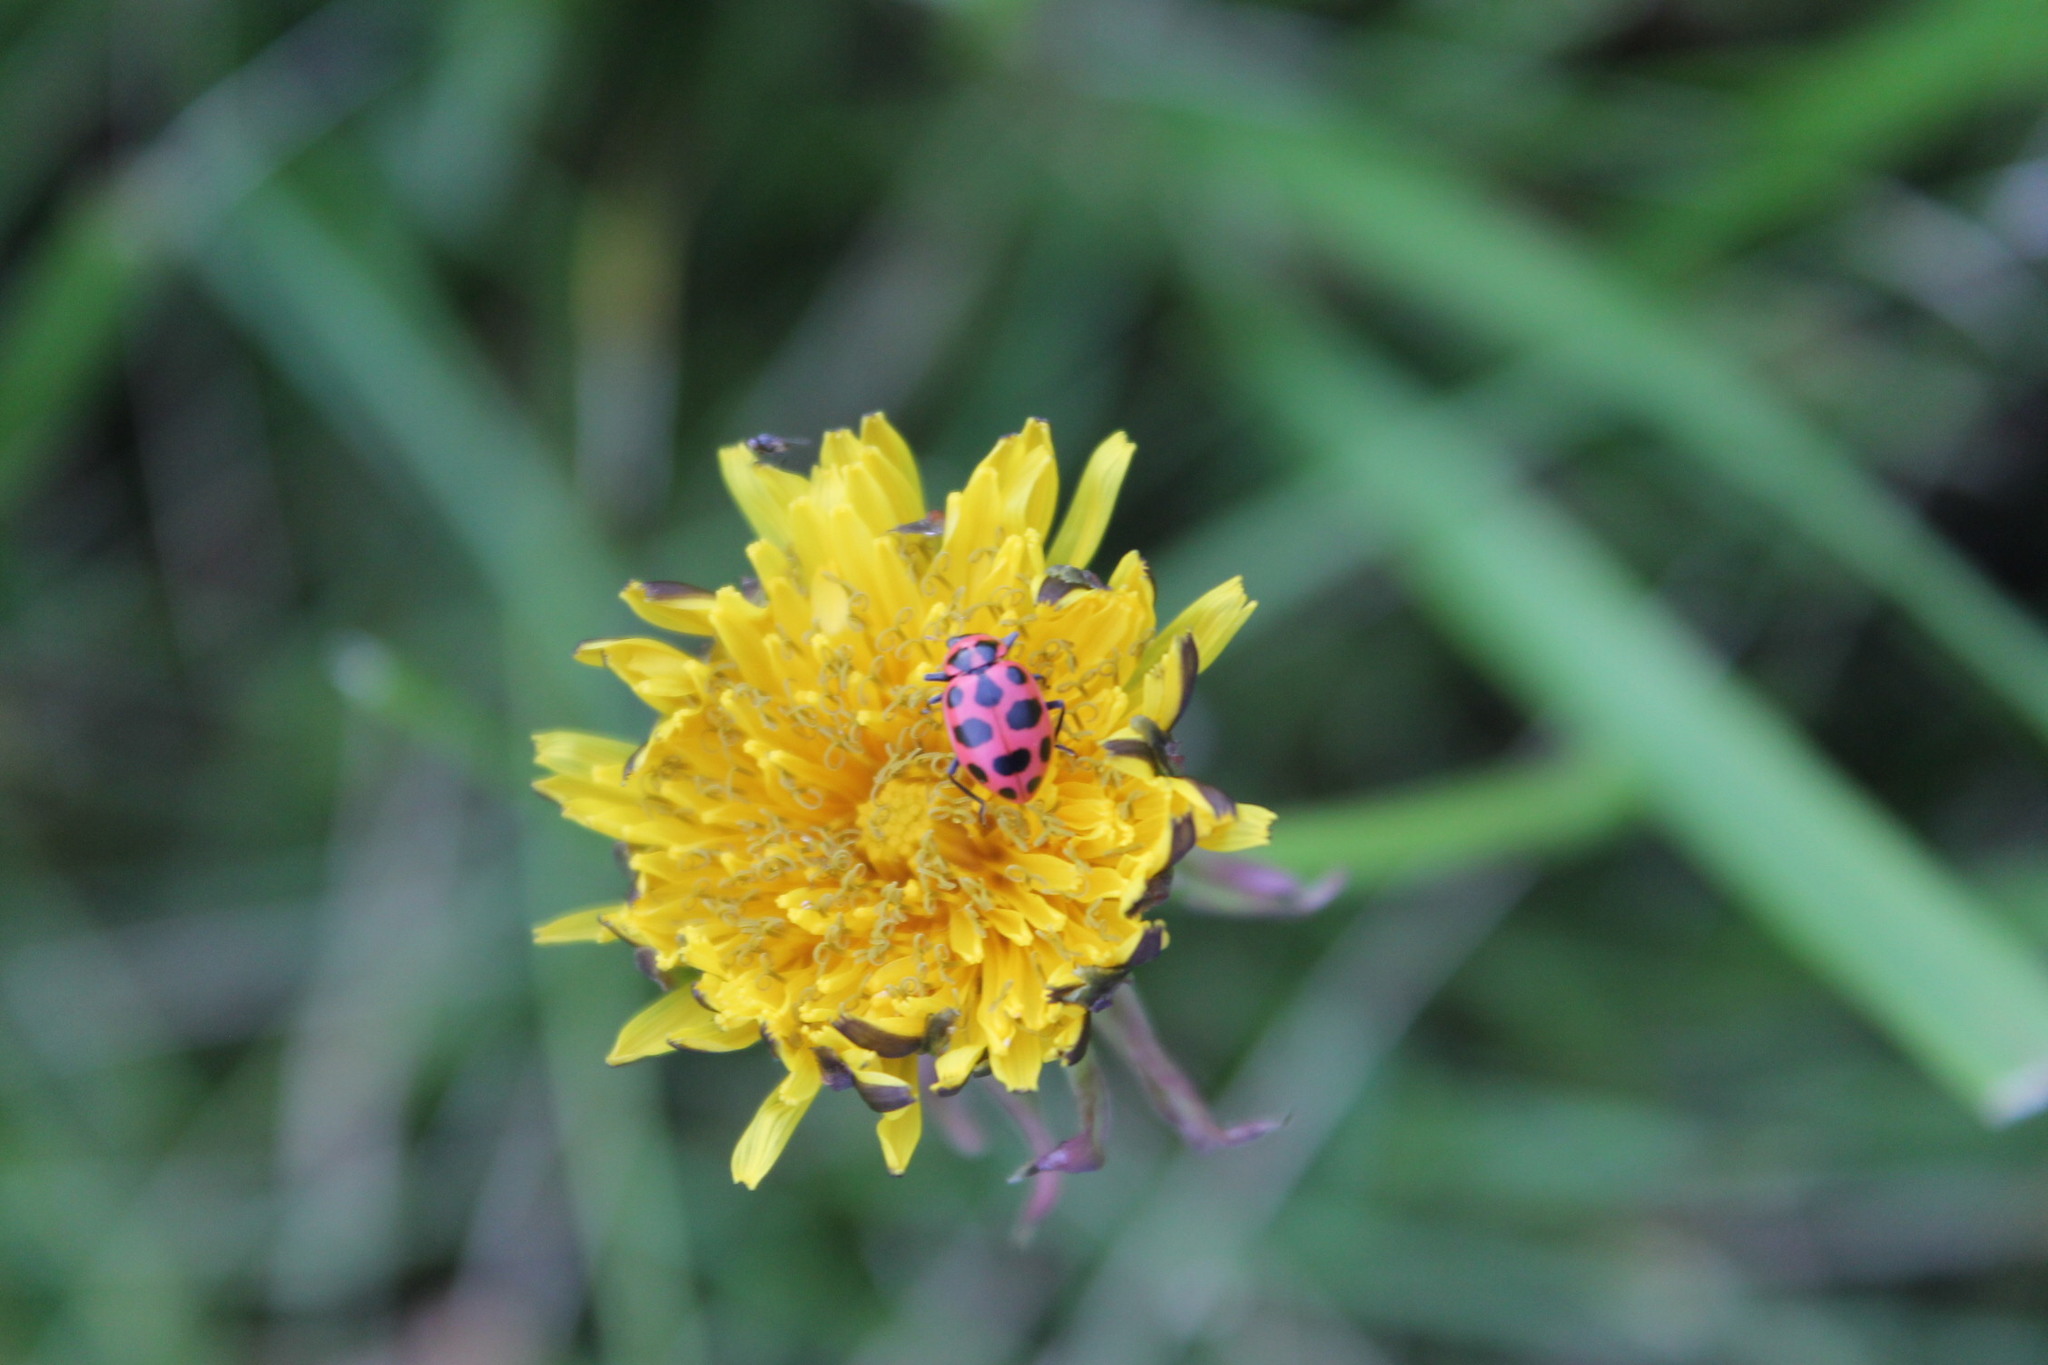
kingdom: Animalia
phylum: Arthropoda
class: Insecta
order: Coleoptera
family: Coccinellidae
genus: Coleomegilla
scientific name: Coleomegilla maculata
